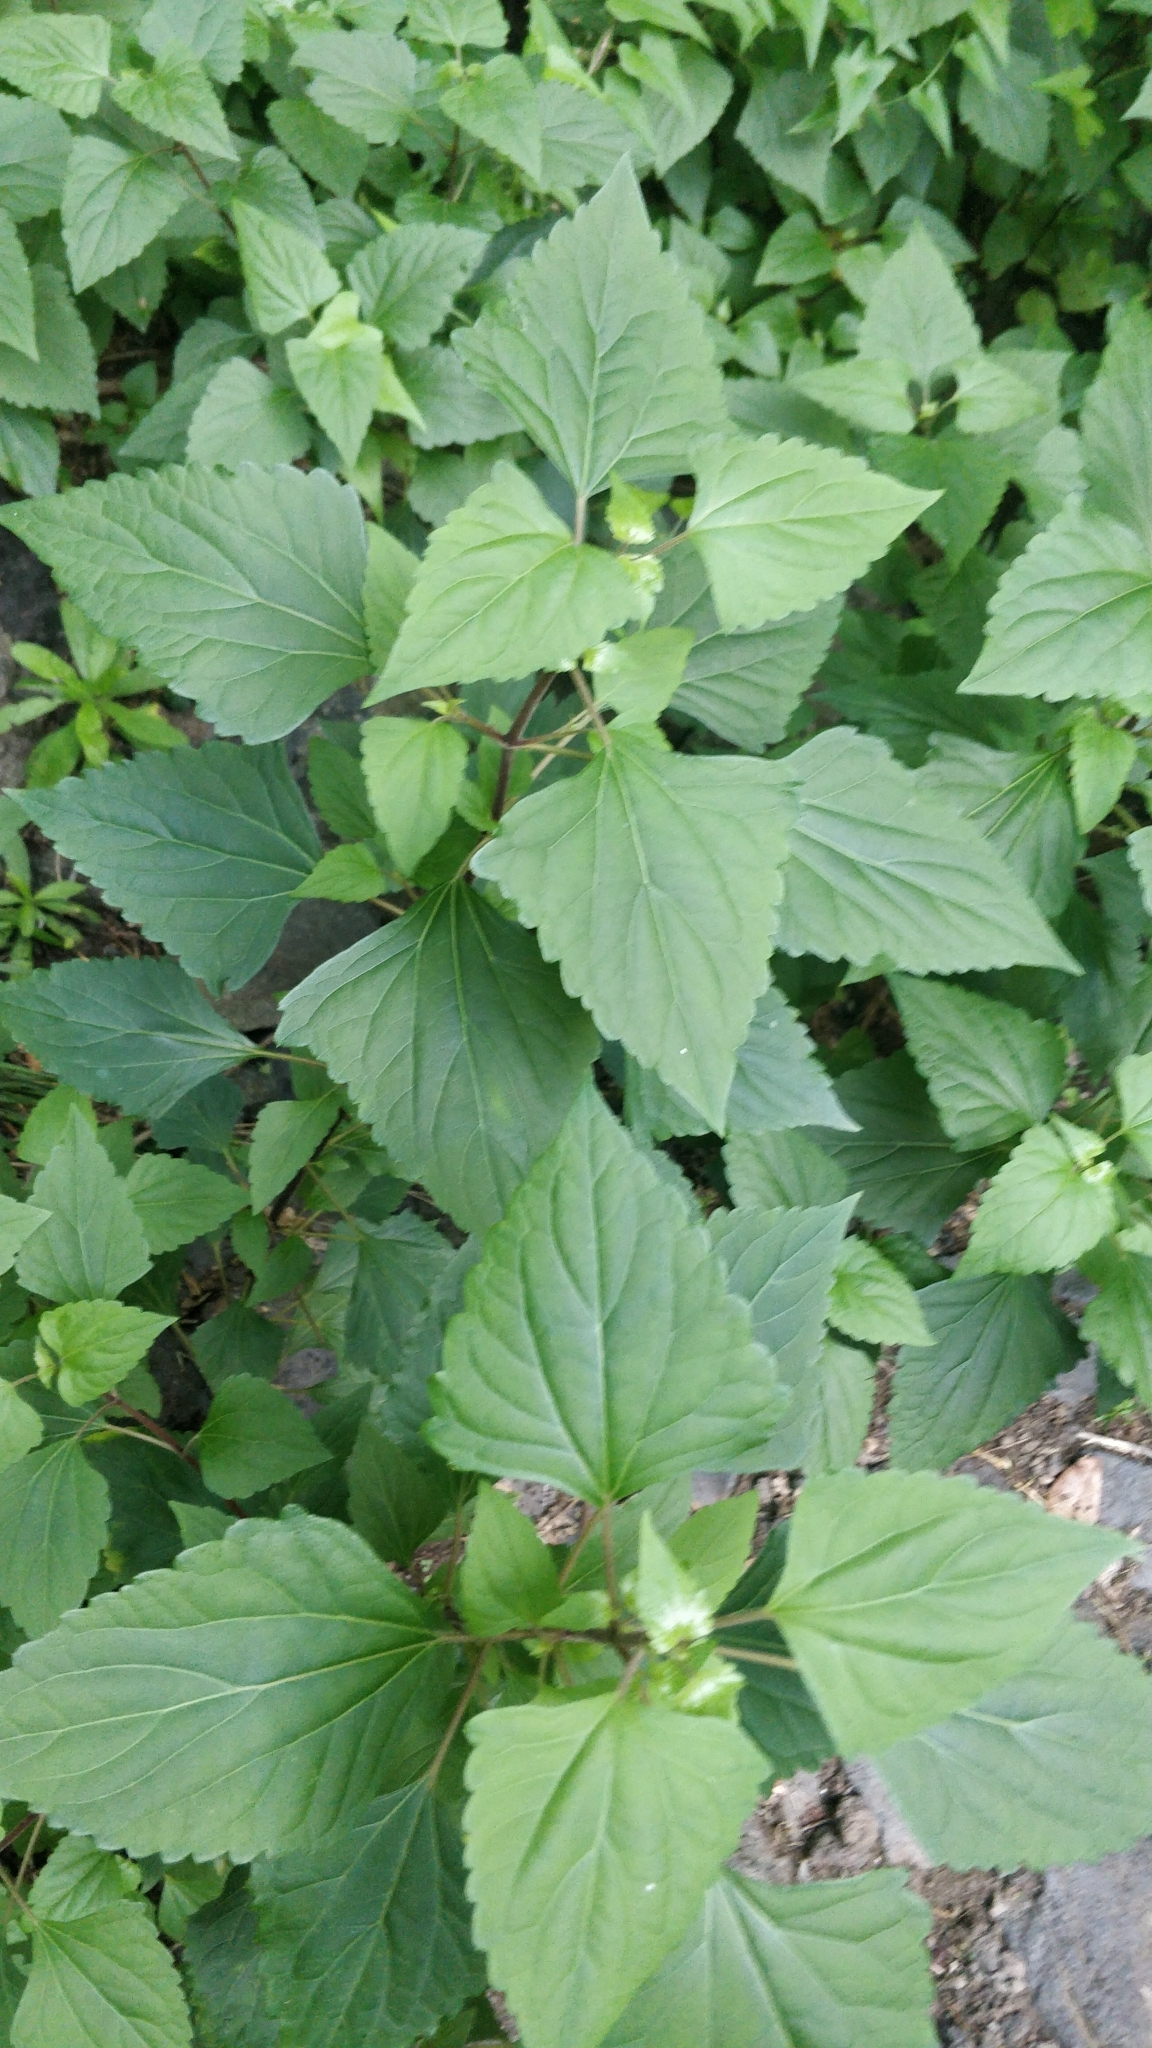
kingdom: Plantae
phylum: Tracheophyta
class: Magnoliopsida
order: Asterales
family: Asteraceae
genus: Ageratina
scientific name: Ageratina adenophora
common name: Sticky snakeroot
